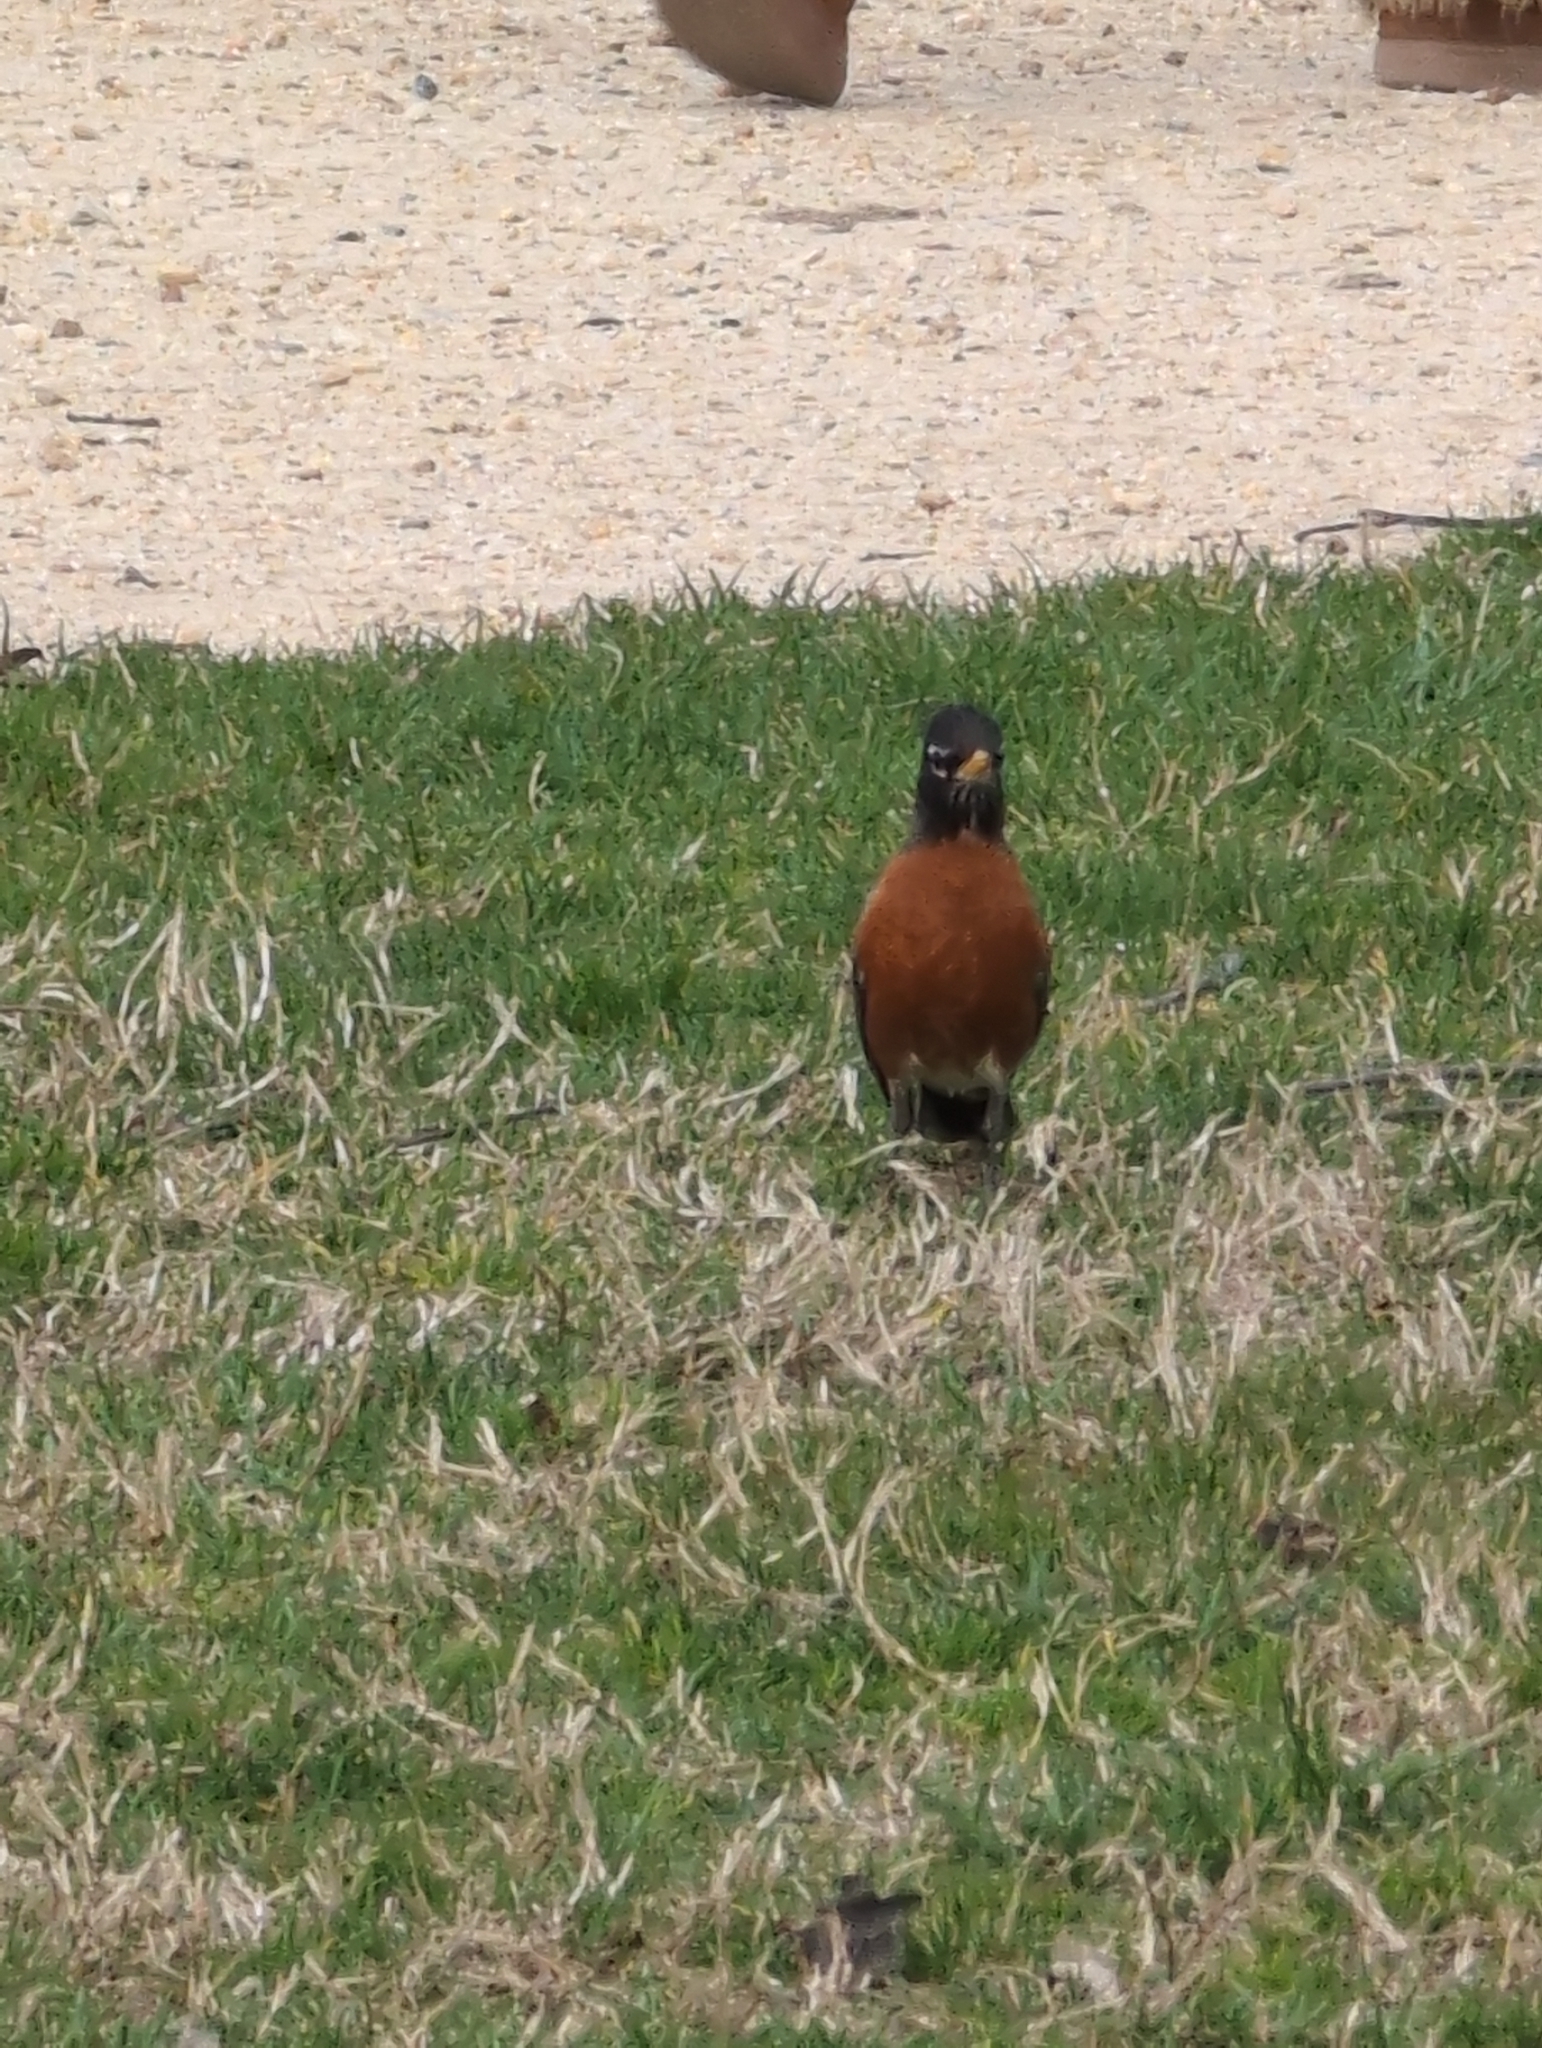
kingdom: Animalia
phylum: Chordata
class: Aves
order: Passeriformes
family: Turdidae
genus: Turdus
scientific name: Turdus migratorius
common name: American robin
